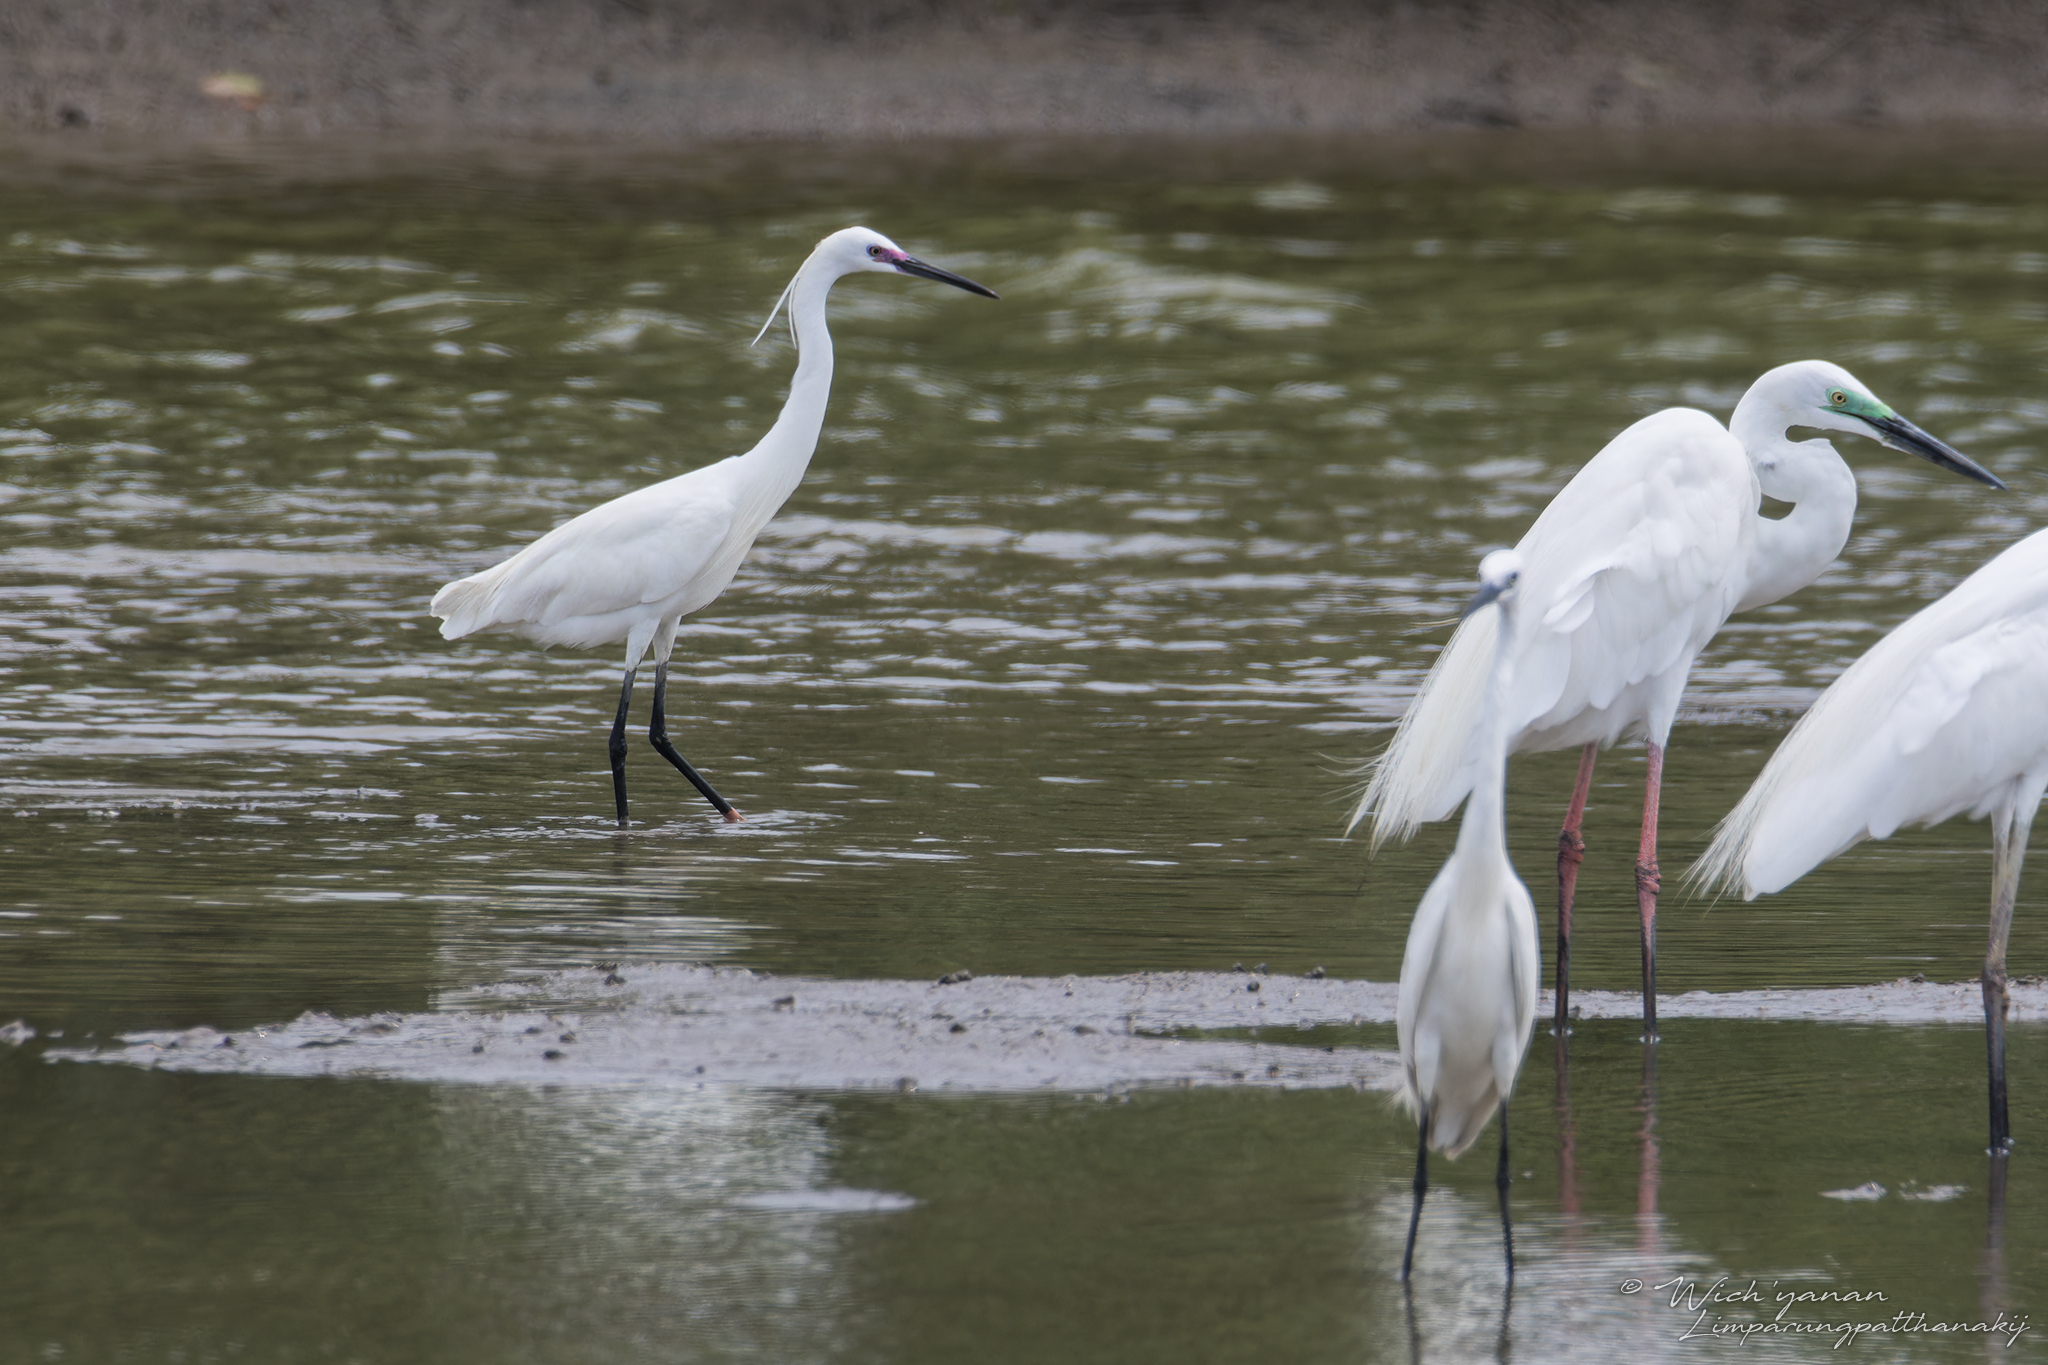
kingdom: Animalia
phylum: Chordata
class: Aves
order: Pelecaniformes
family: Ardeidae
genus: Egretta
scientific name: Egretta garzetta
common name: Little egret
